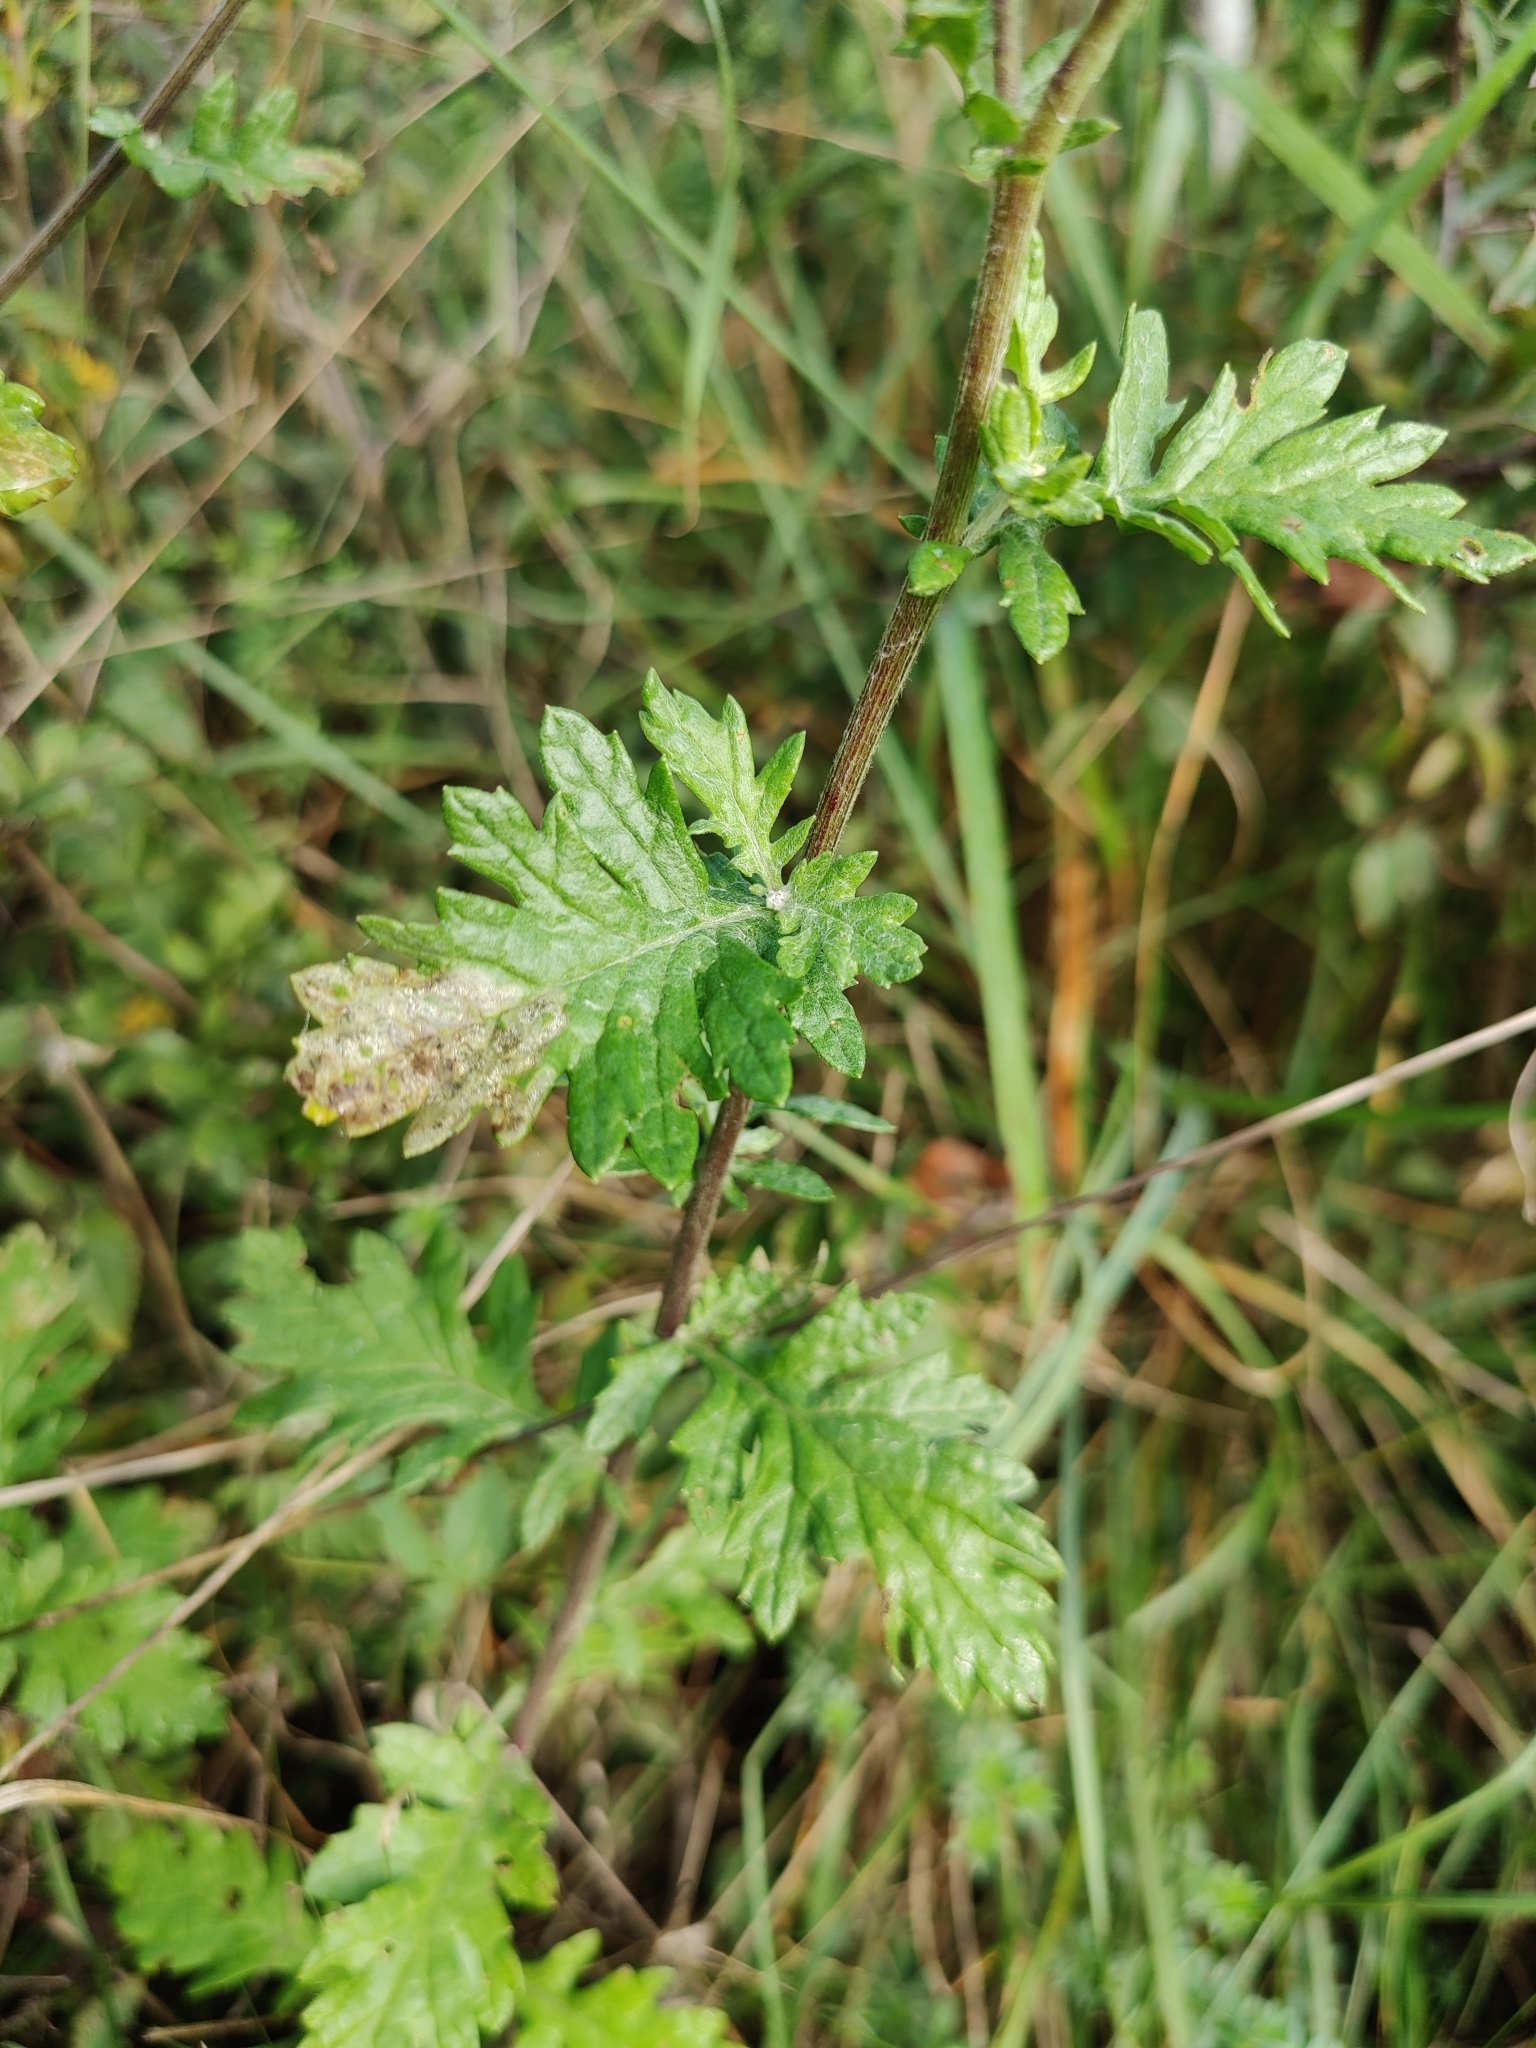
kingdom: Plantae
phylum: Tracheophyta
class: Magnoliopsida
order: Asterales
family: Asteraceae
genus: Jacobaea
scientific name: Jacobaea erucifolia
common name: Hoary ragwort
